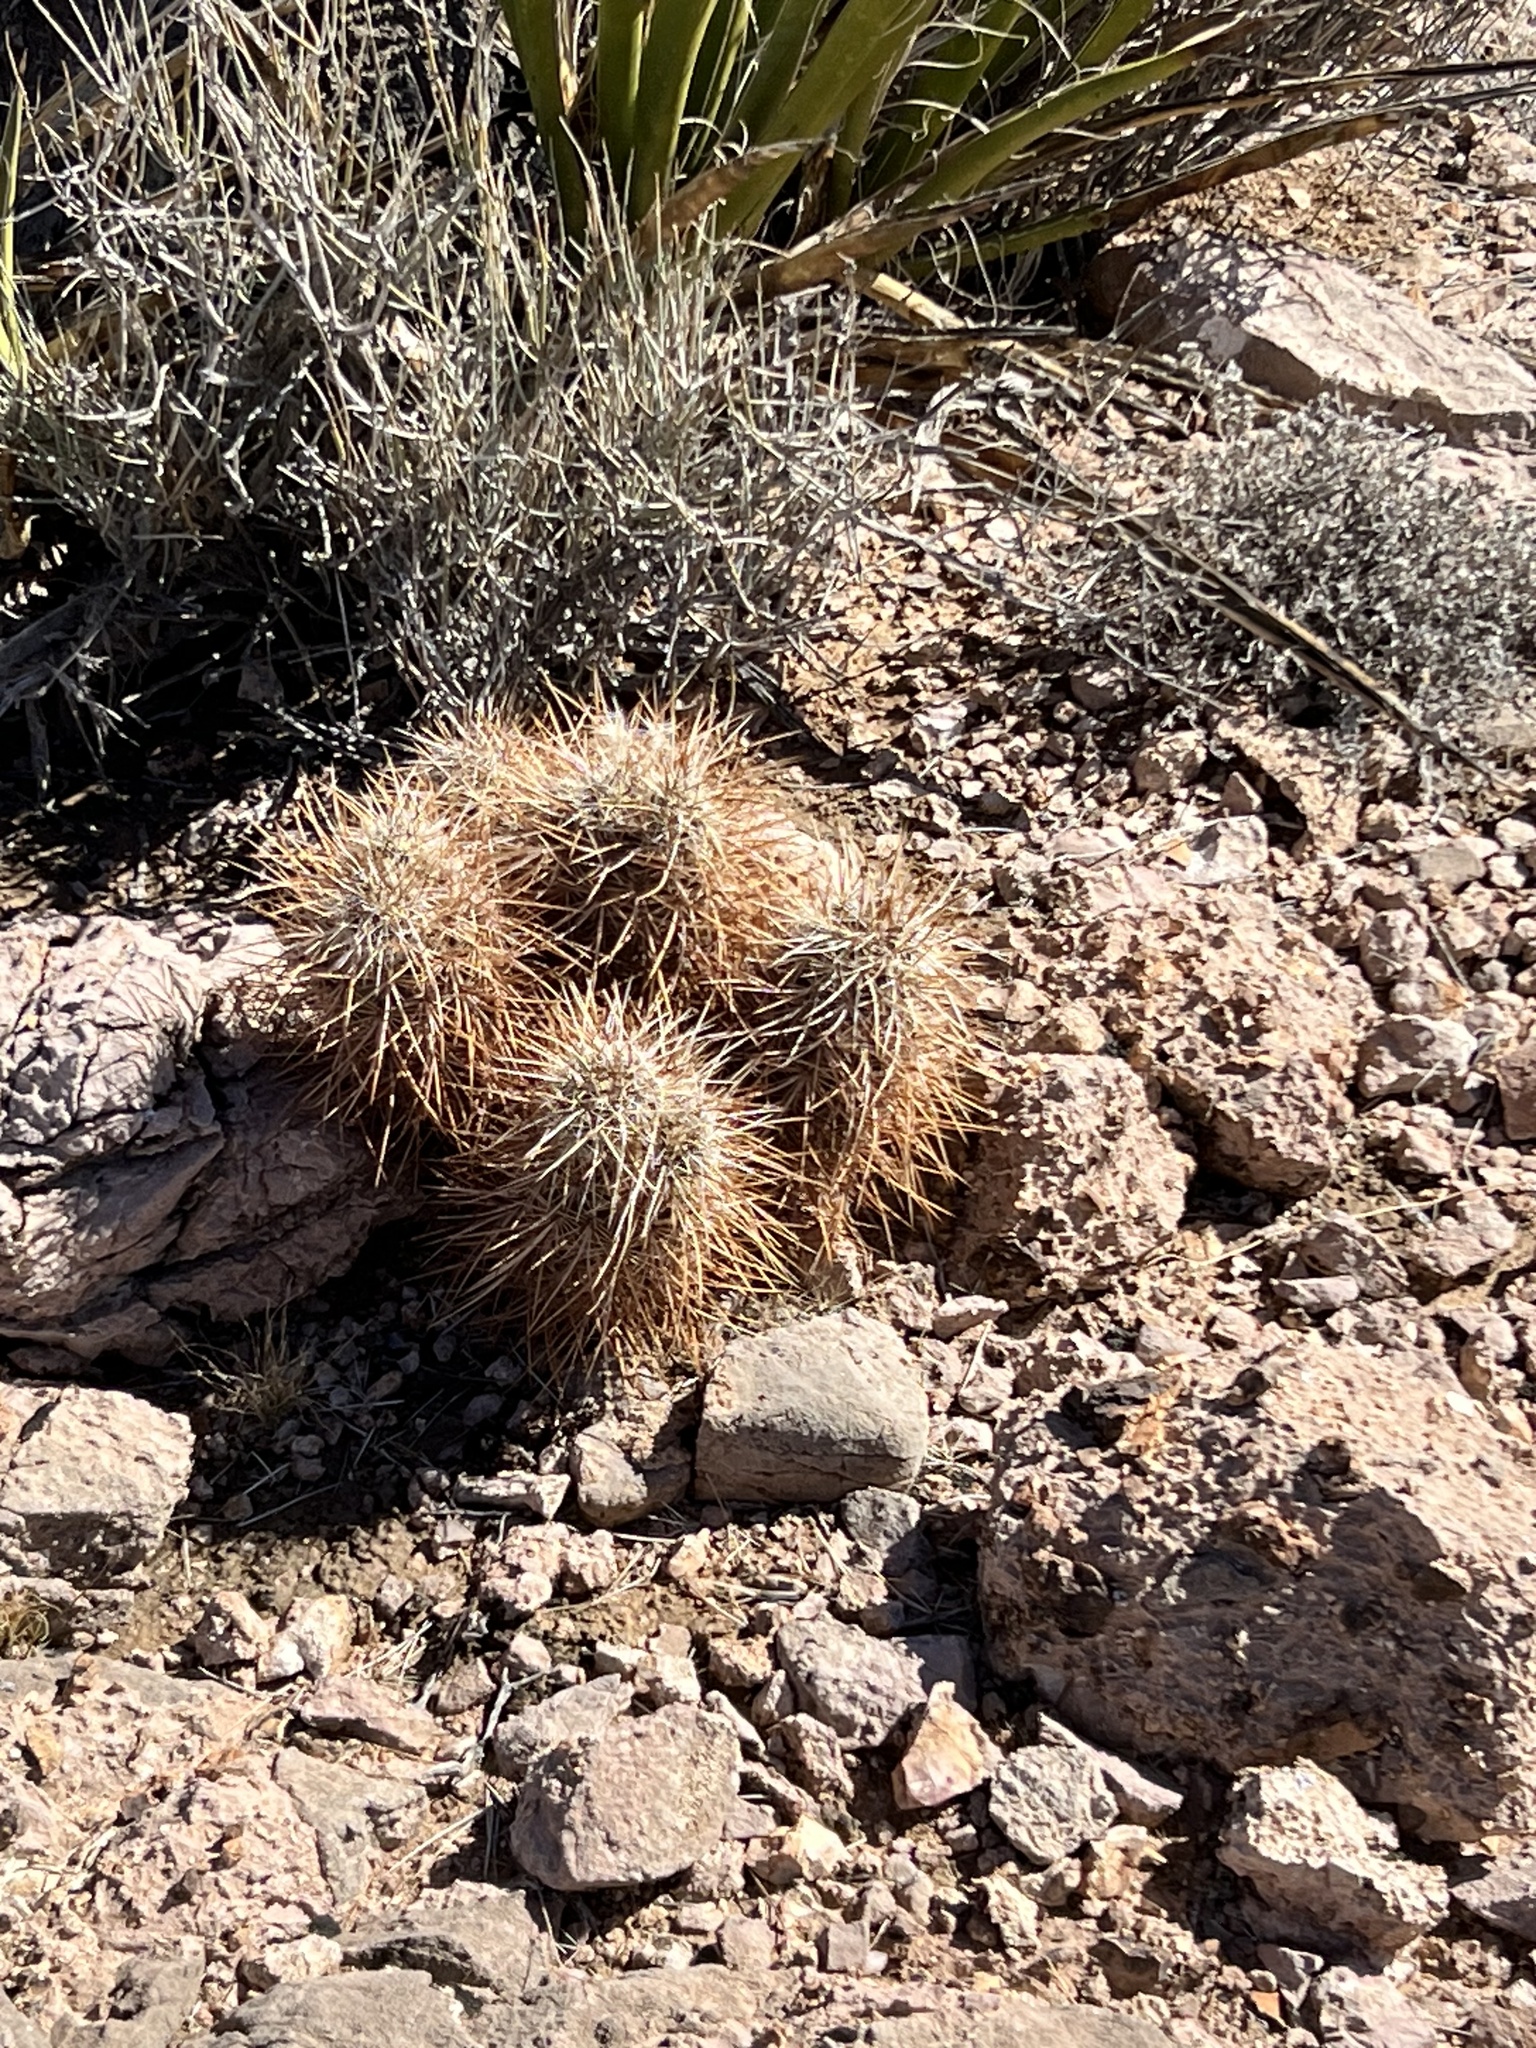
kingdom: Plantae
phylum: Tracheophyta
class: Magnoliopsida
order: Caryophyllales
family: Cactaceae
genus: Echinocereus
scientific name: Echinocereus engelmannii
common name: Engelmann's hedgehog cactus
